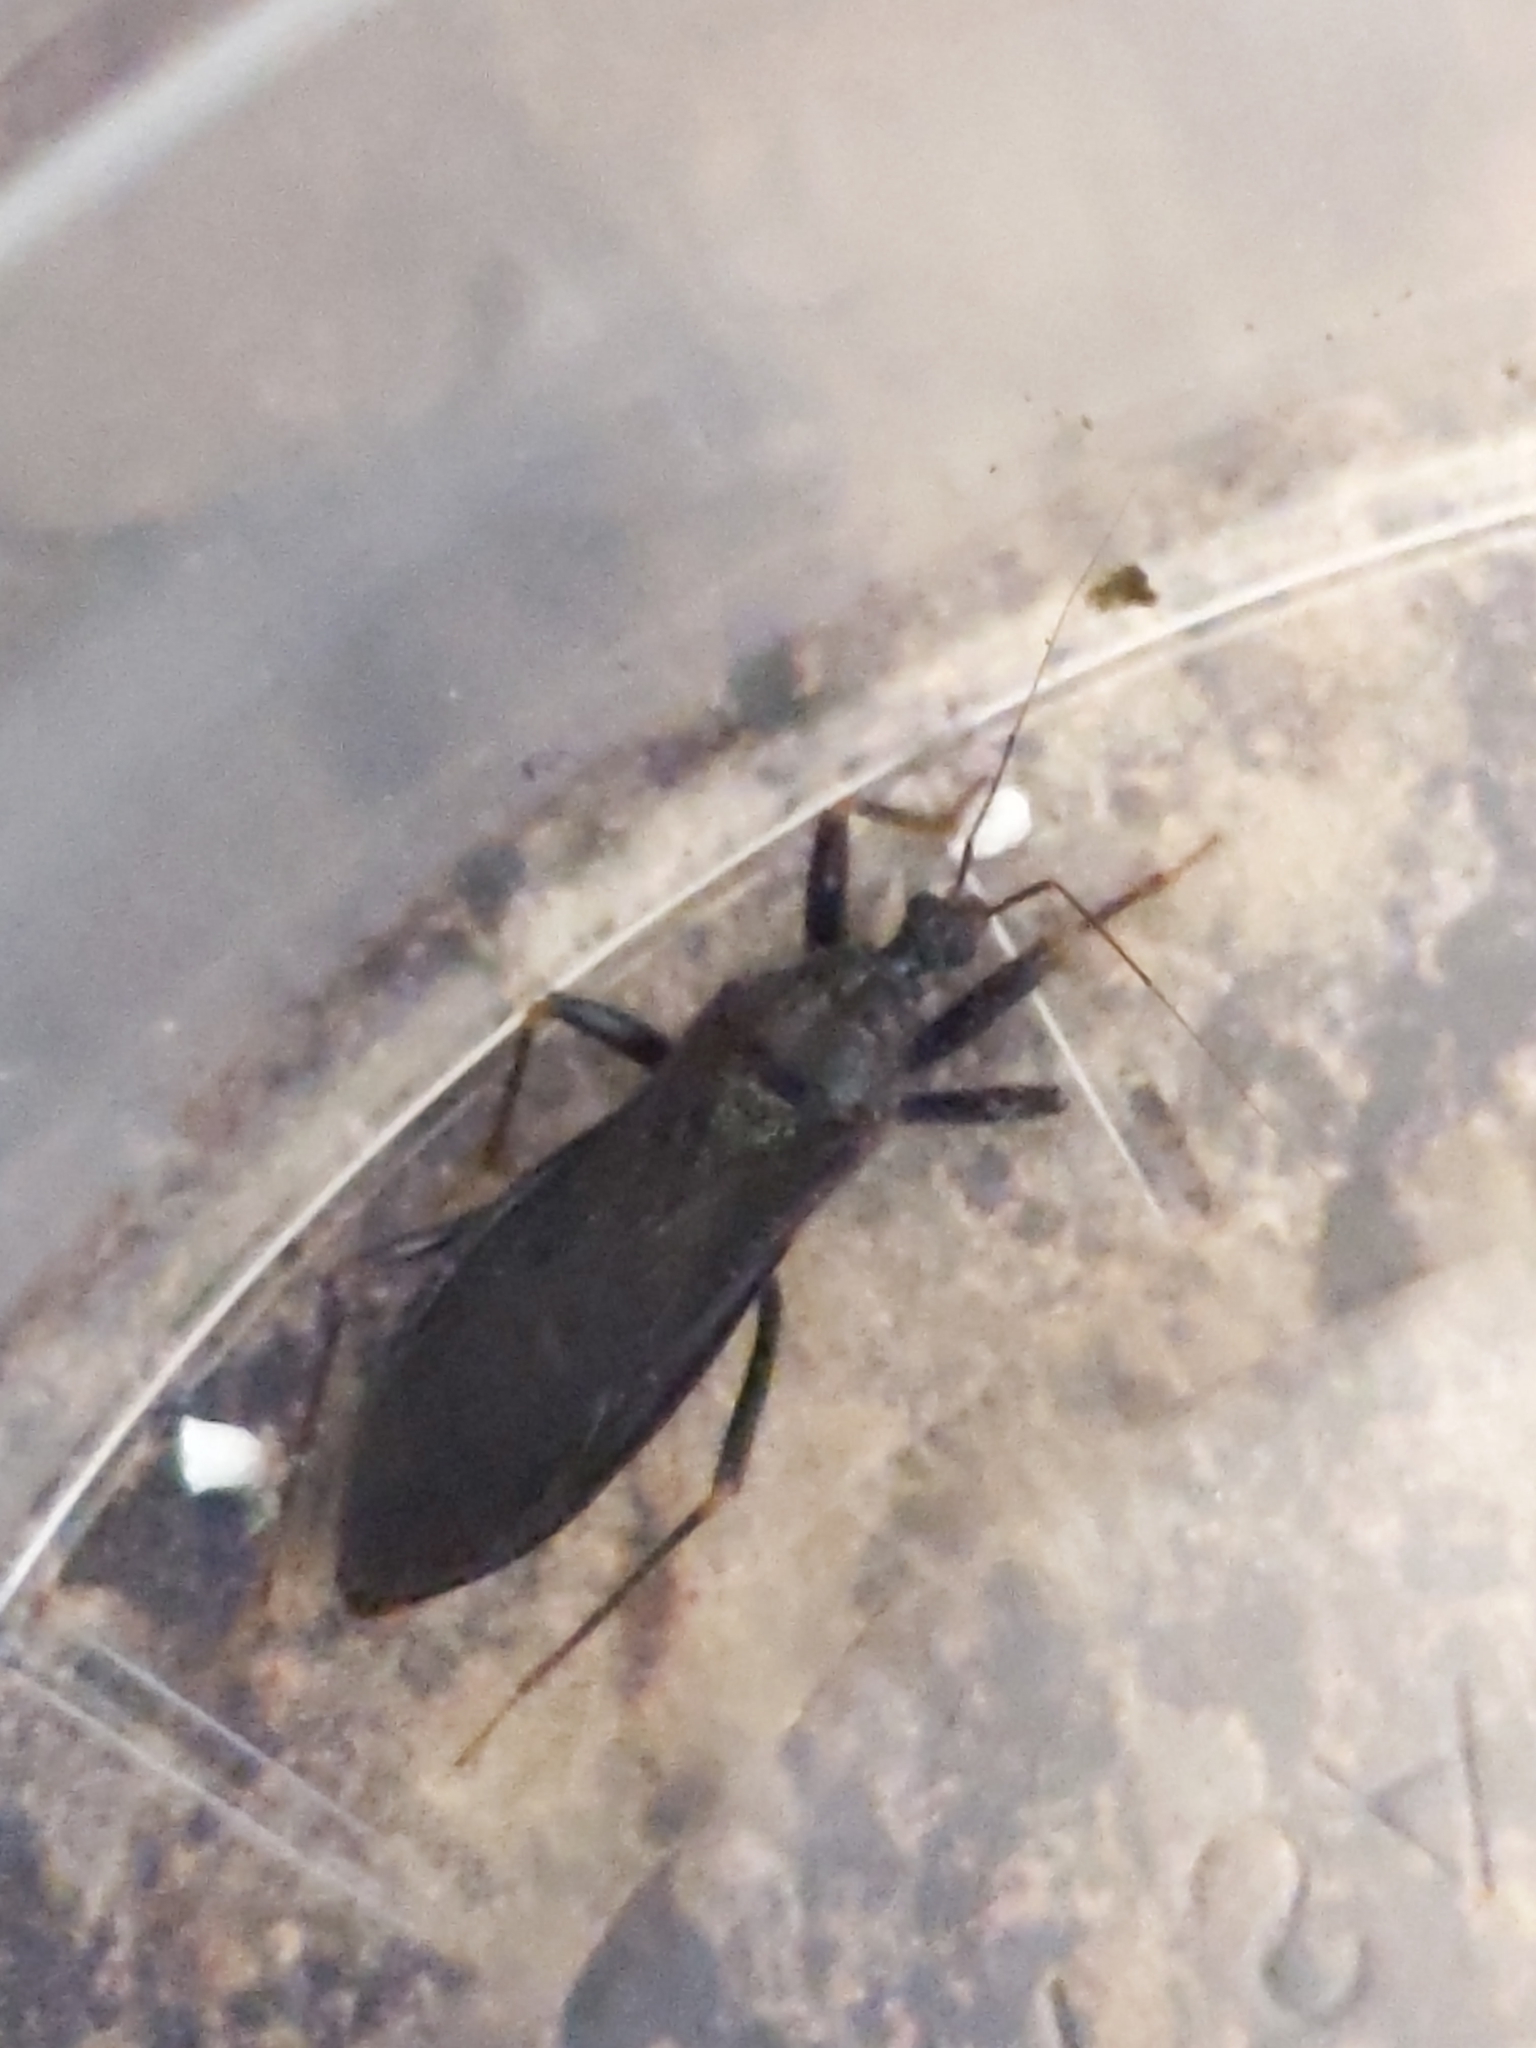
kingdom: Animalia
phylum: Arthropoda
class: Insecta
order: Hemiptera
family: Reduviidae
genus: Reduvius
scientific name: Reduvius personatus
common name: Masked hunter
